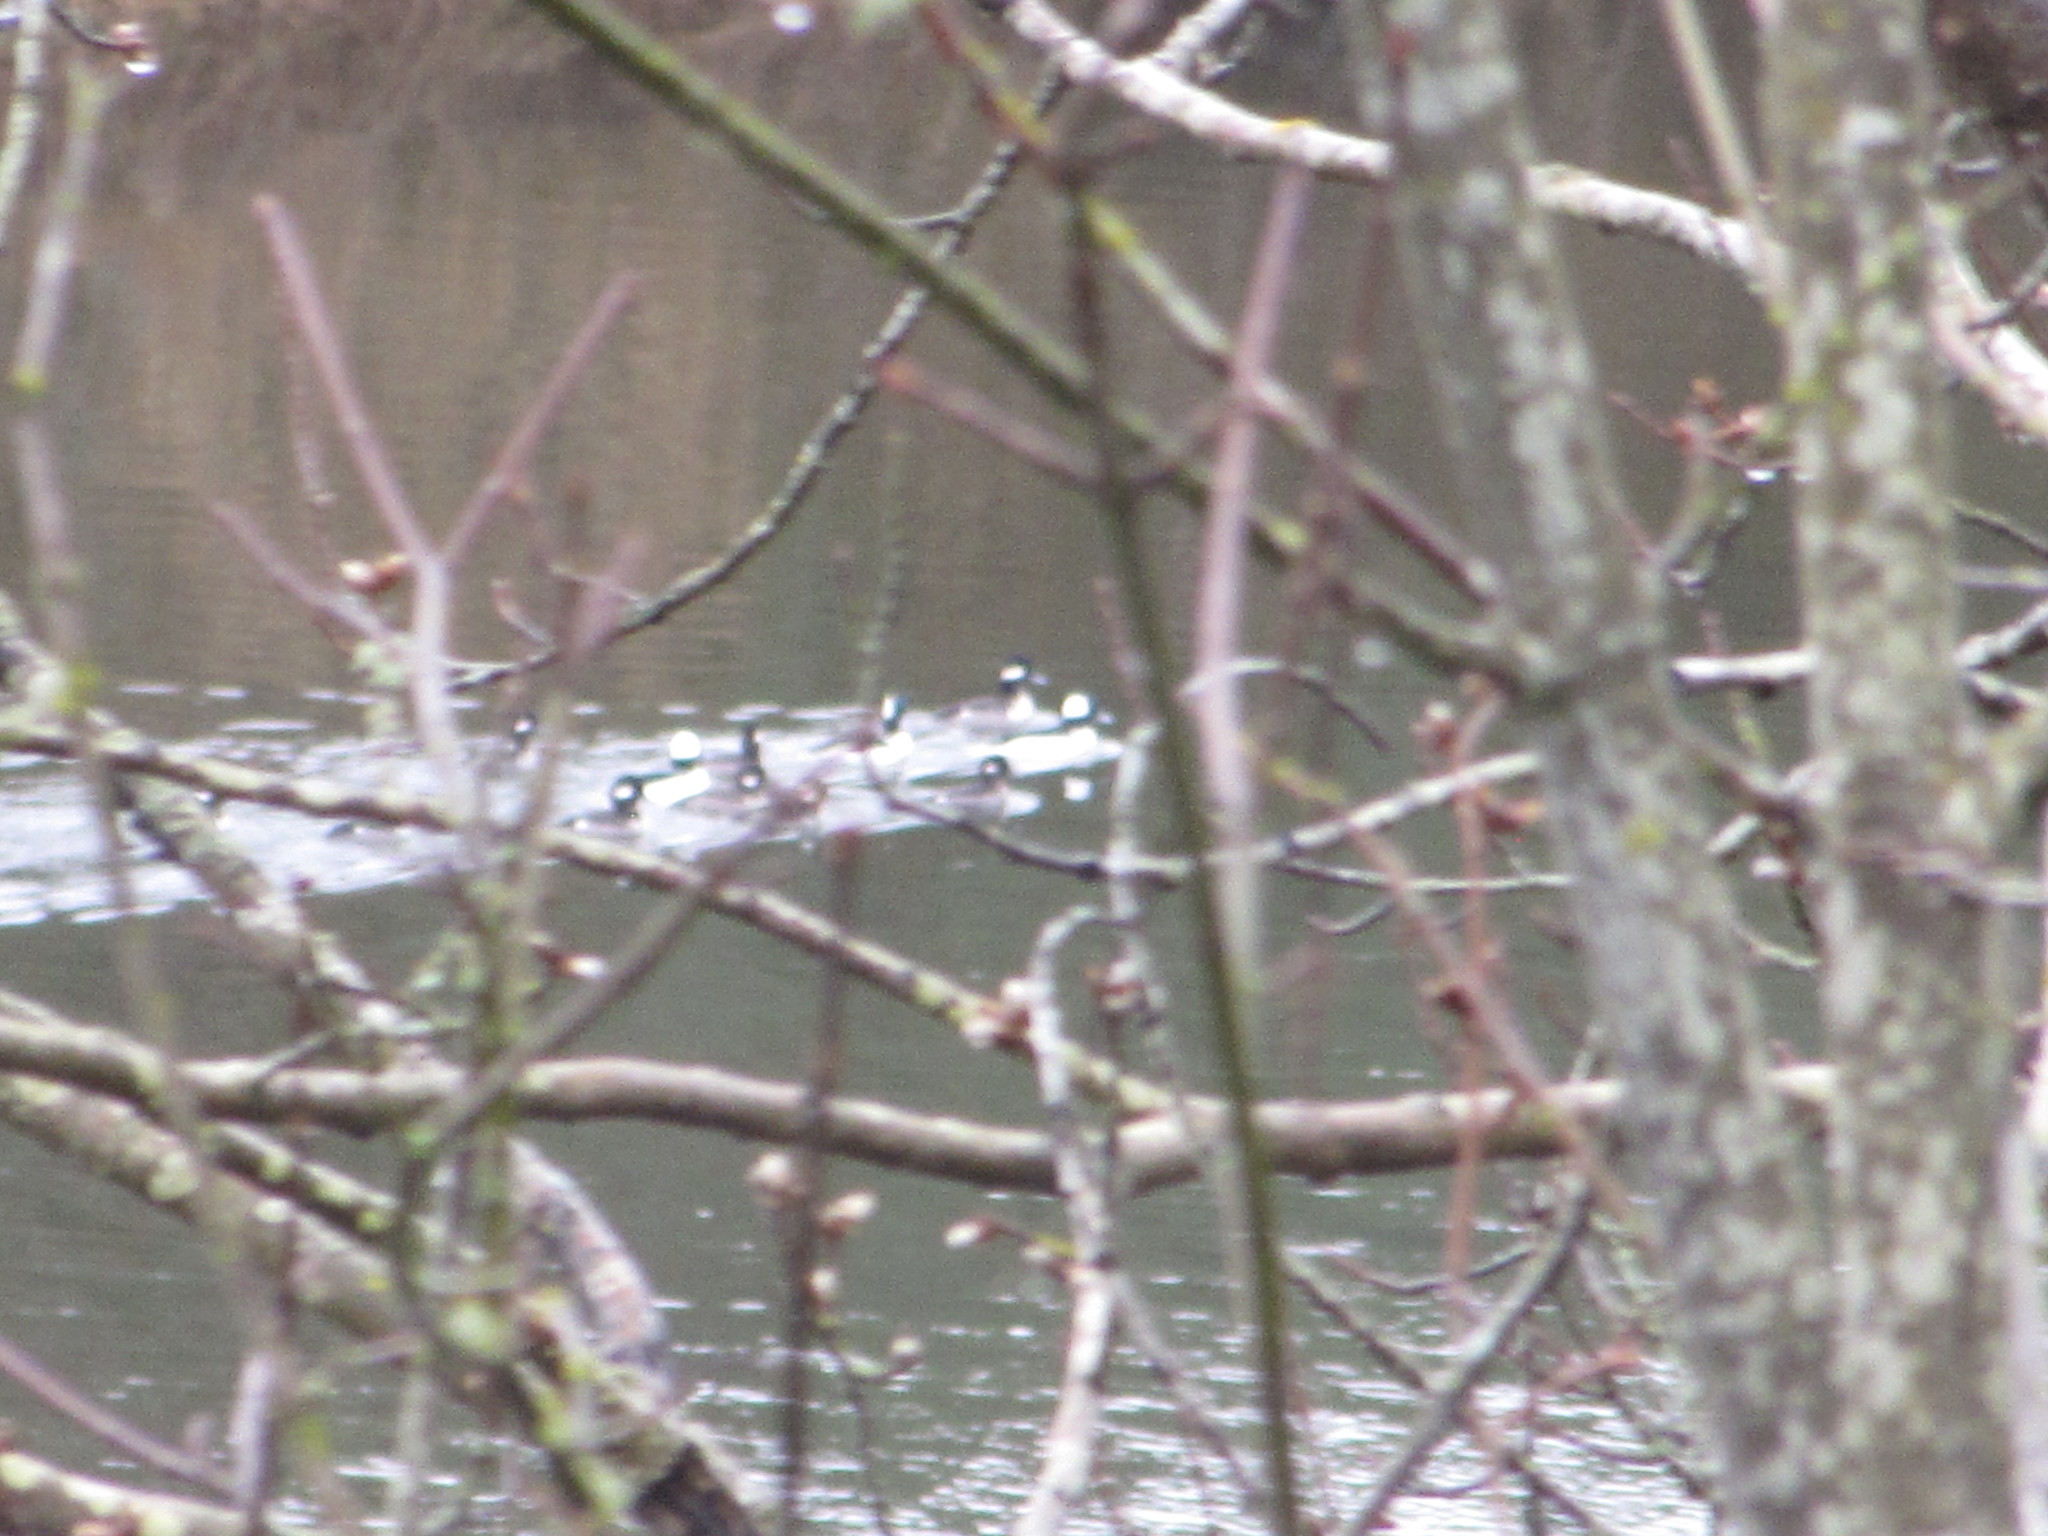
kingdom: Animalia
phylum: Chordata
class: Aves
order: Anseriformes
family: Anatidae
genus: Bucephala
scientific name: Bucephala albeola
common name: Bufflehead
